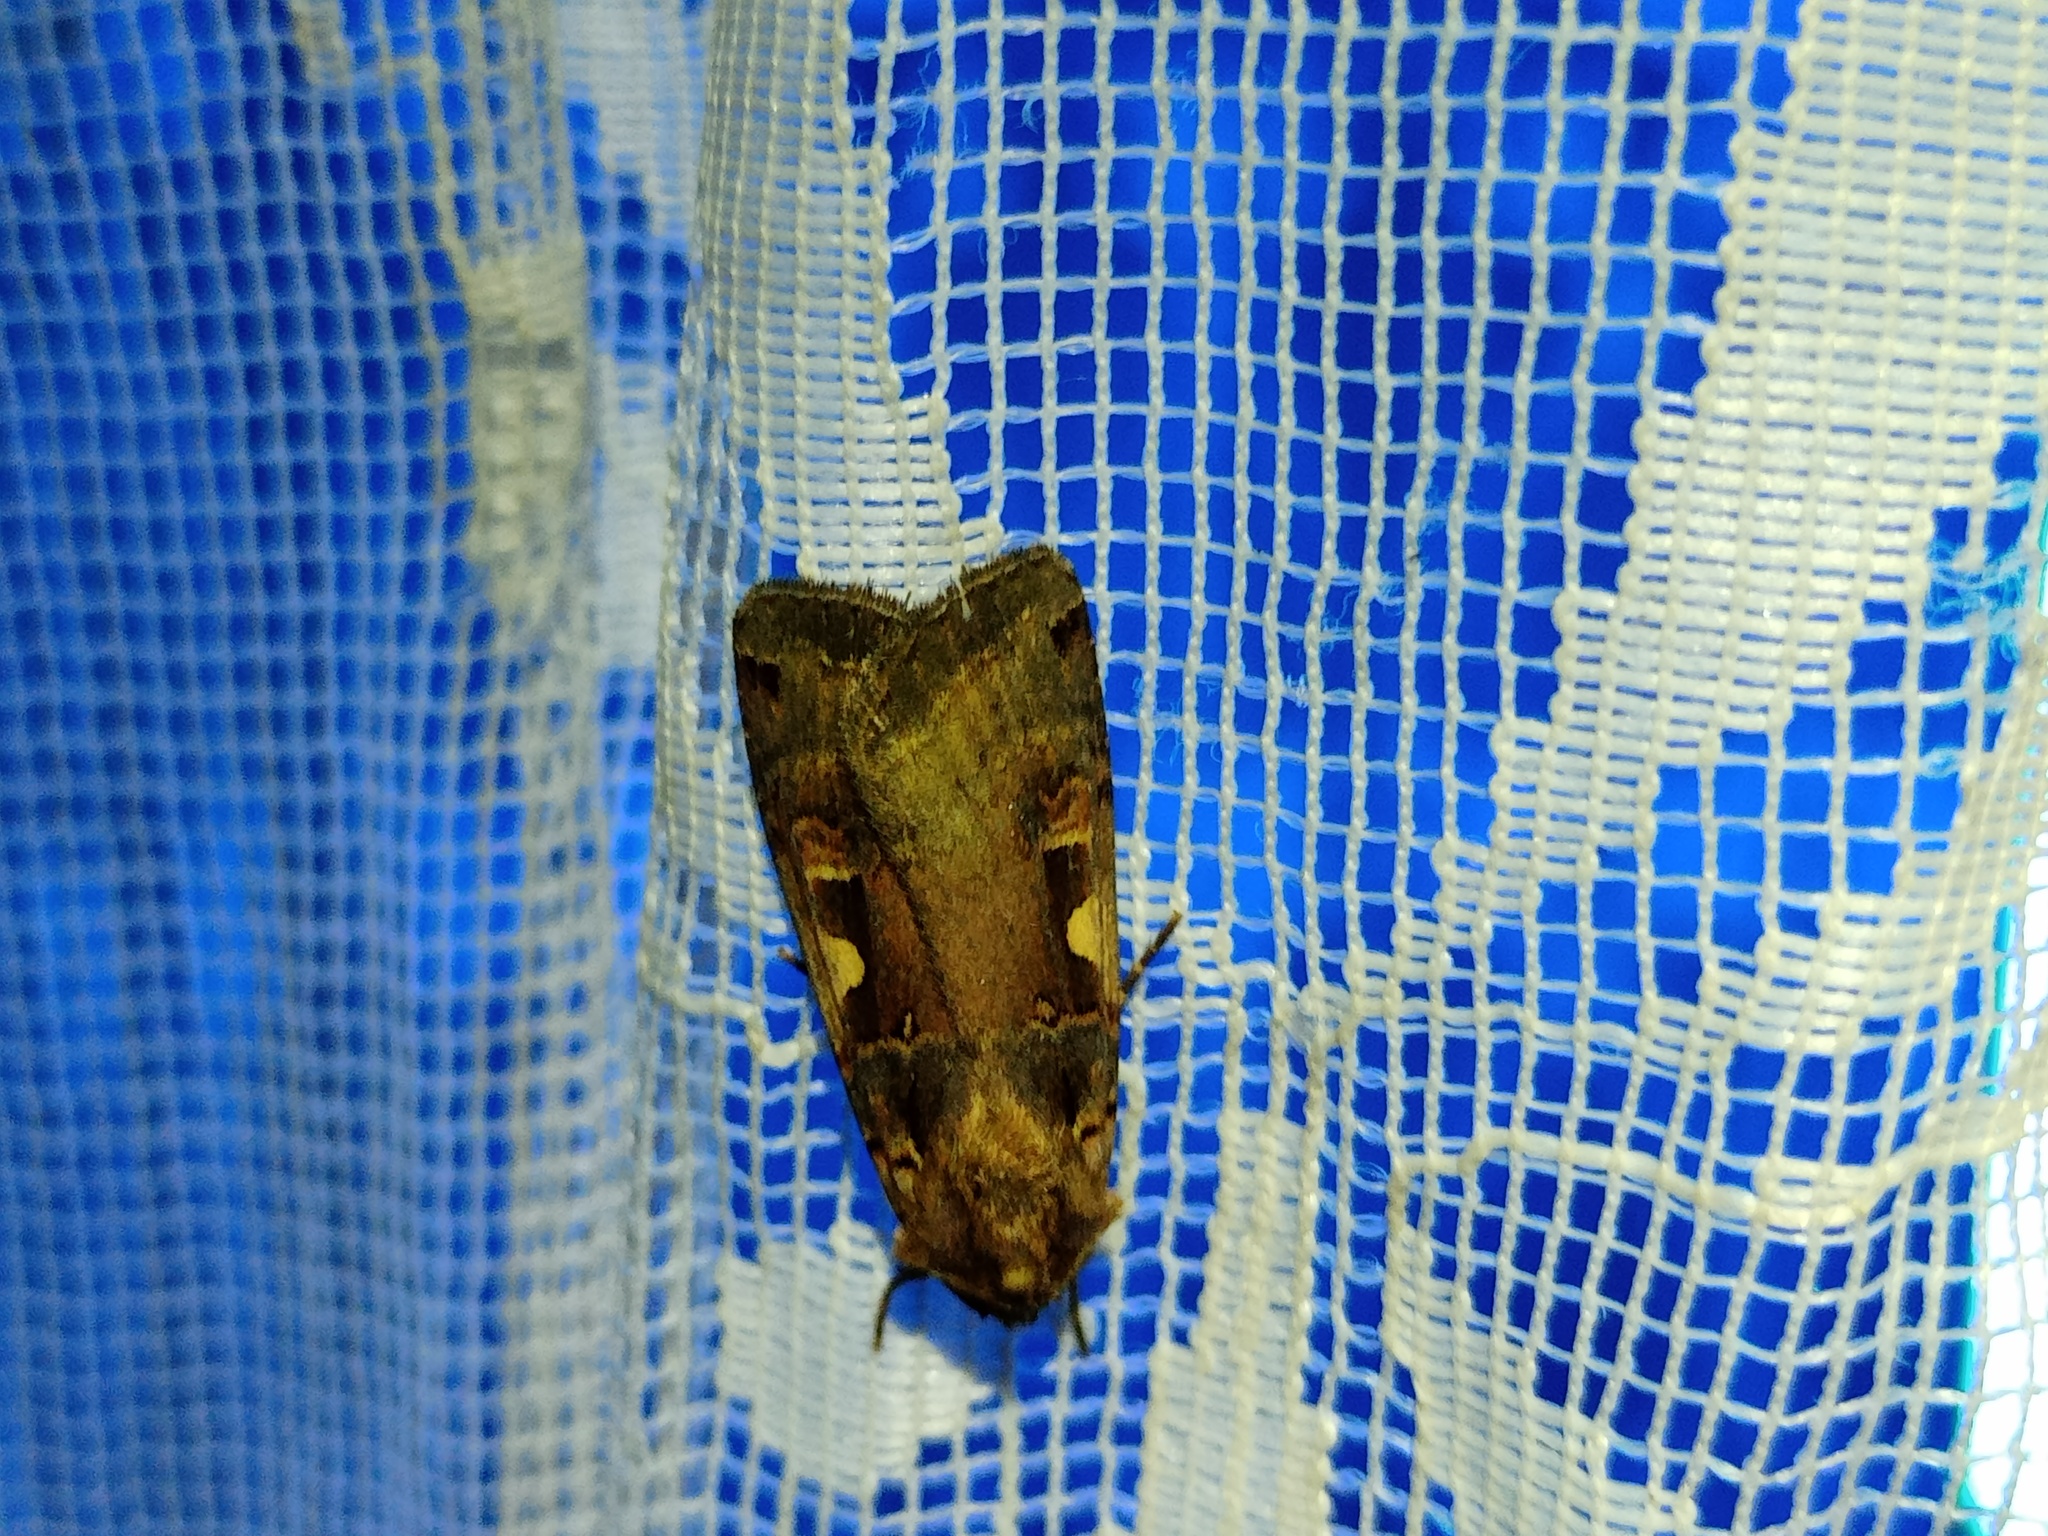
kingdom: Animalia
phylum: Arthropoda
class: Insecta
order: Lepidoptera
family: Noctuidae
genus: Xestia
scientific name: Xestia c-nigrum
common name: Setaceous hebrew character
